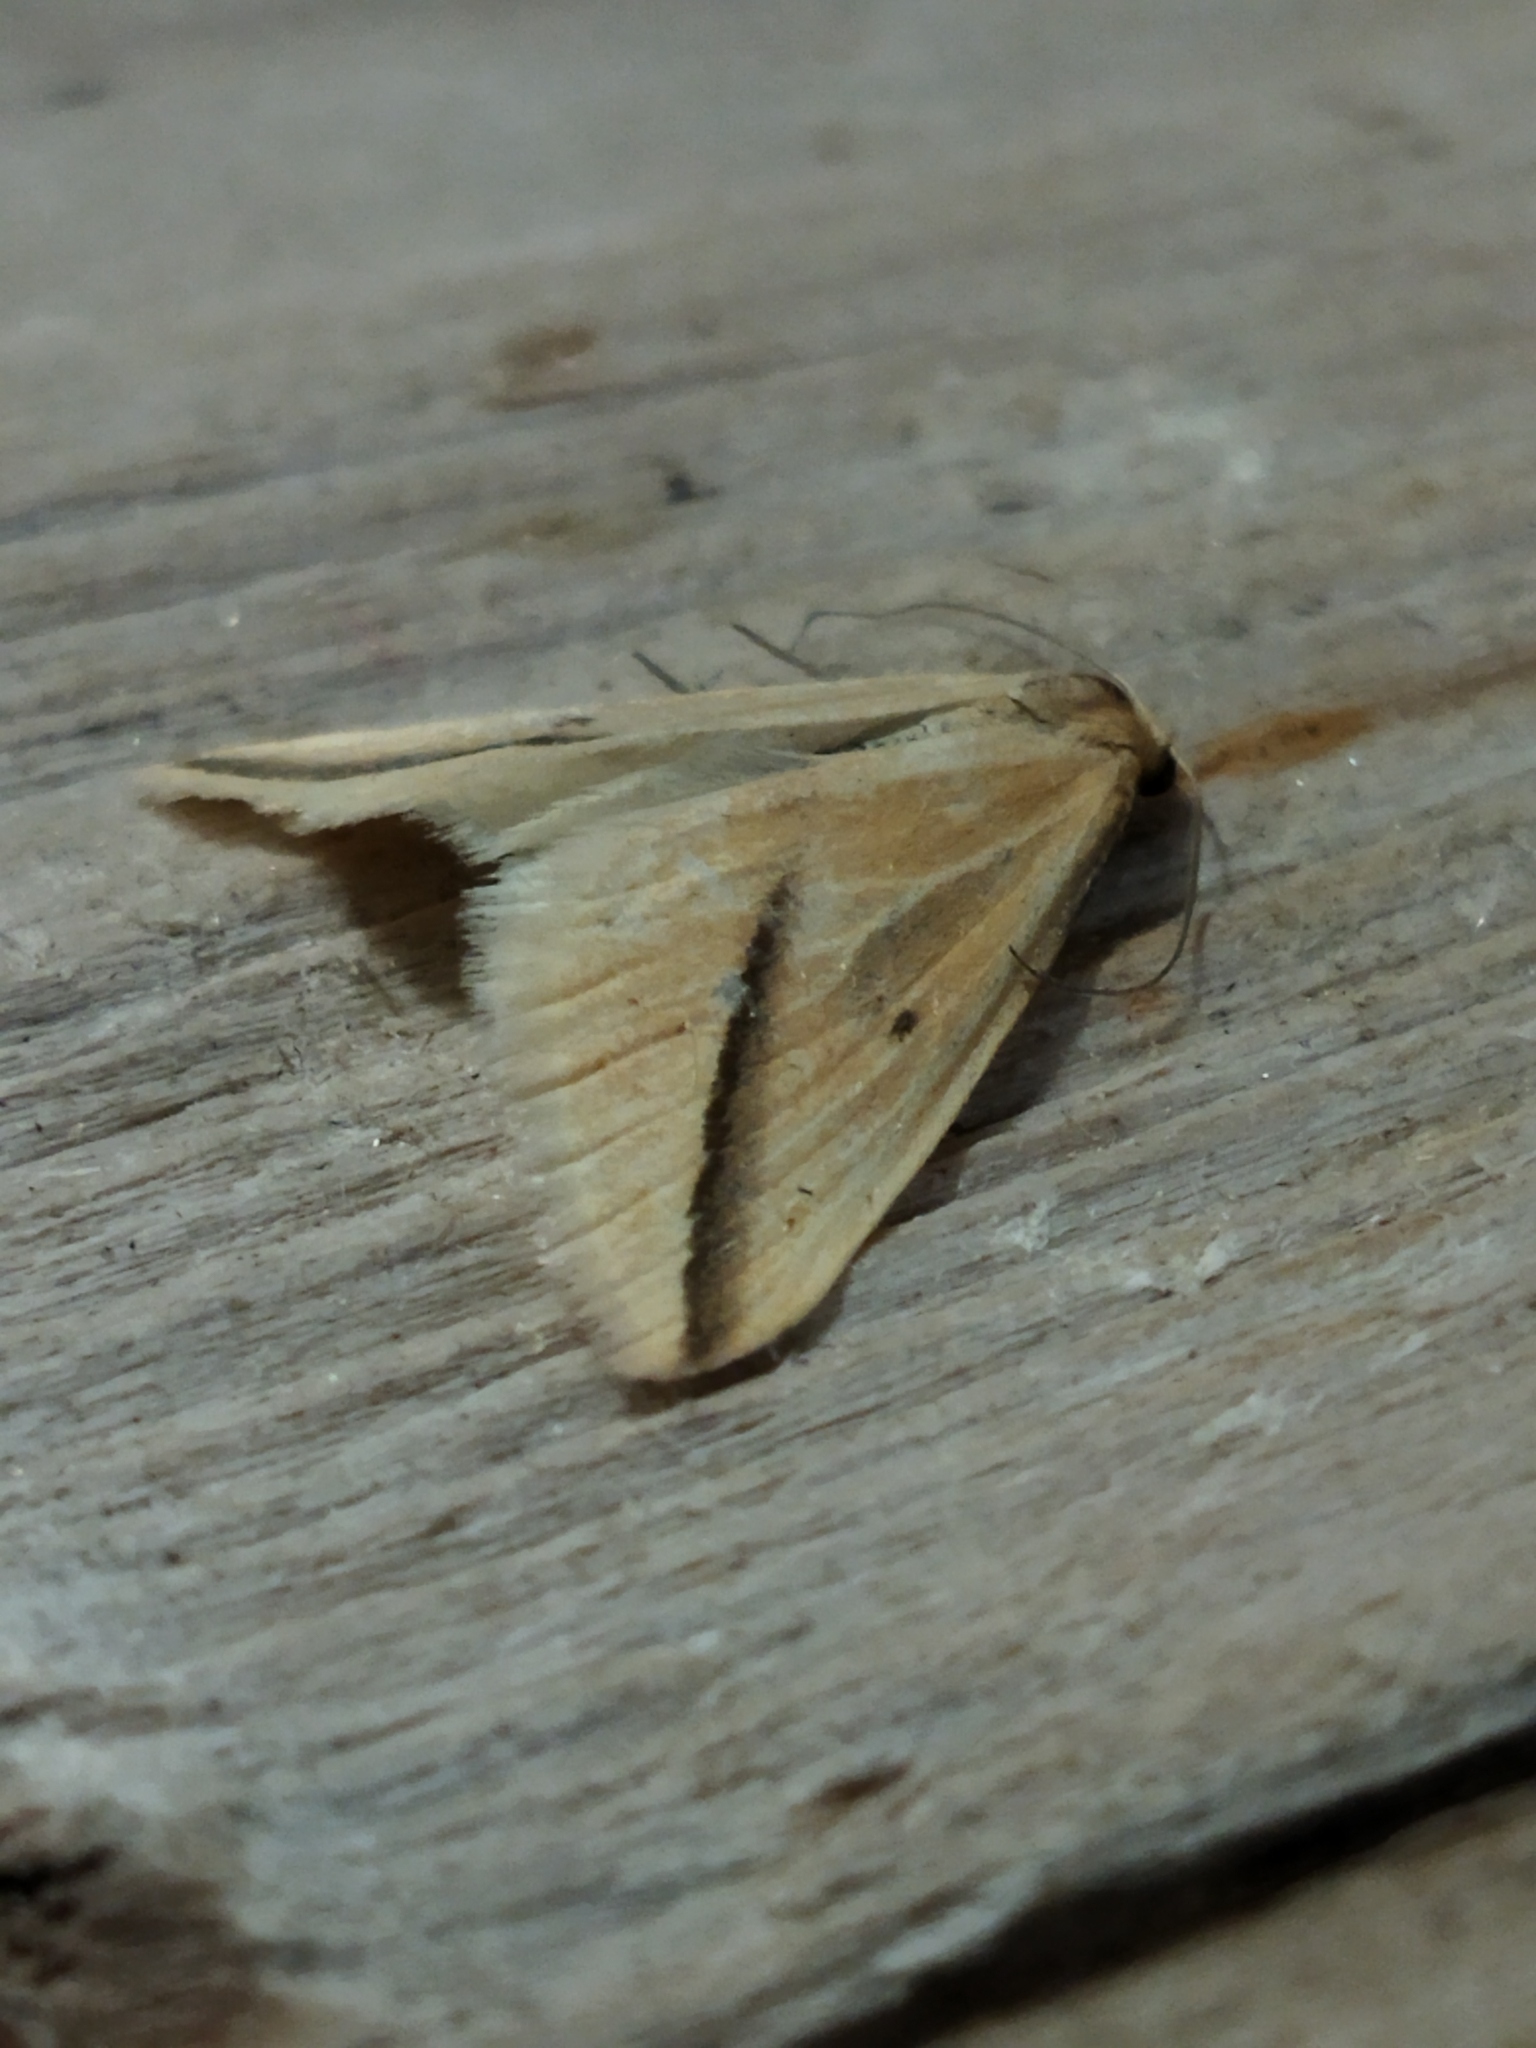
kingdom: Animalia
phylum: Arthropoda
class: Insecta
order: Lepidoptera
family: Geometridae
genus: Rhodometra
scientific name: Rhodometra sacraria
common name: Vestal
